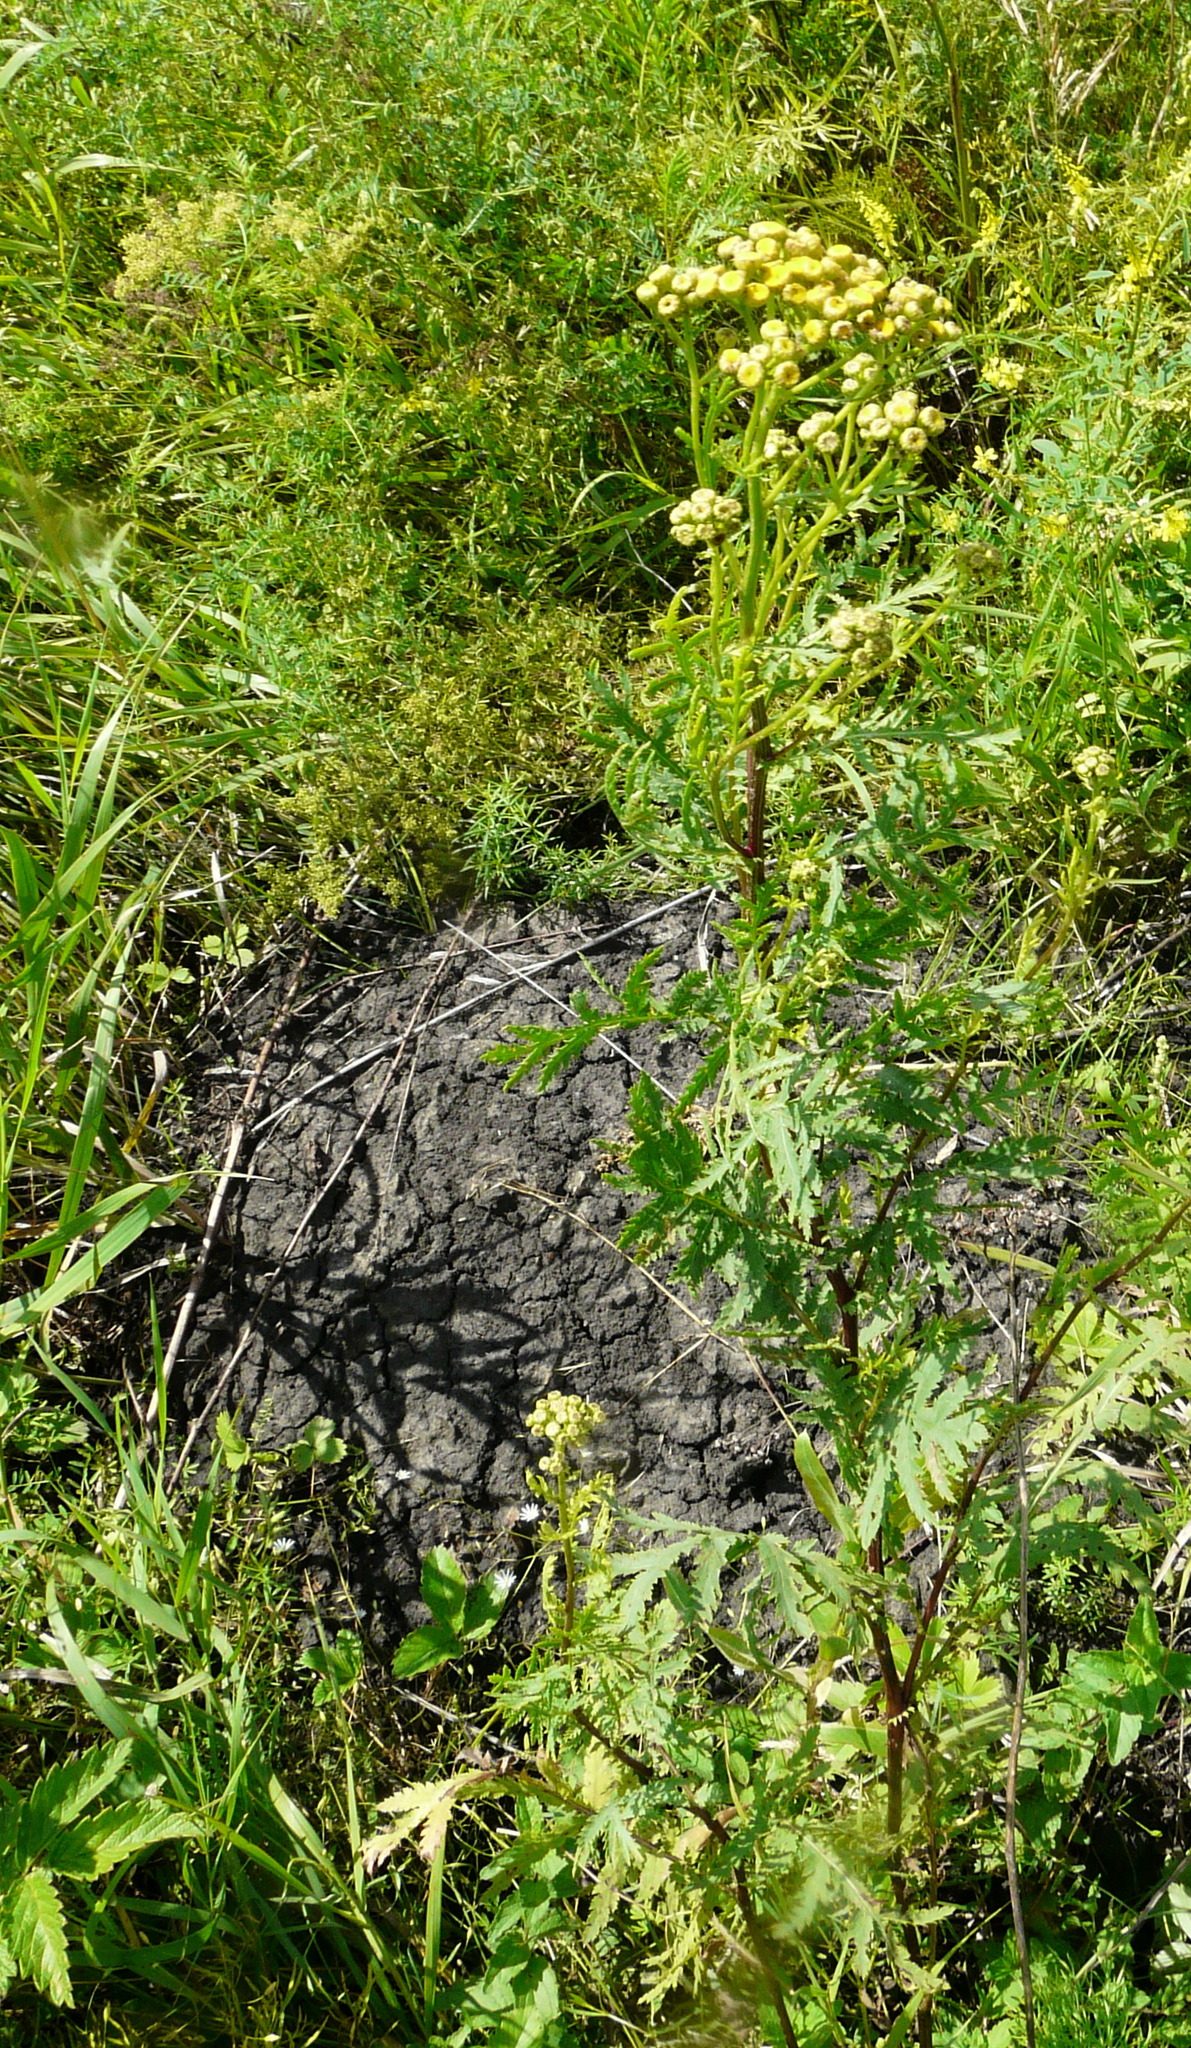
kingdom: Plantae
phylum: Tracheophyta
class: Magnoliopsida
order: Asterales
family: Asteraceae
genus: Tanacetum
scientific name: Tanacetum vulgare
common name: Common tansy
